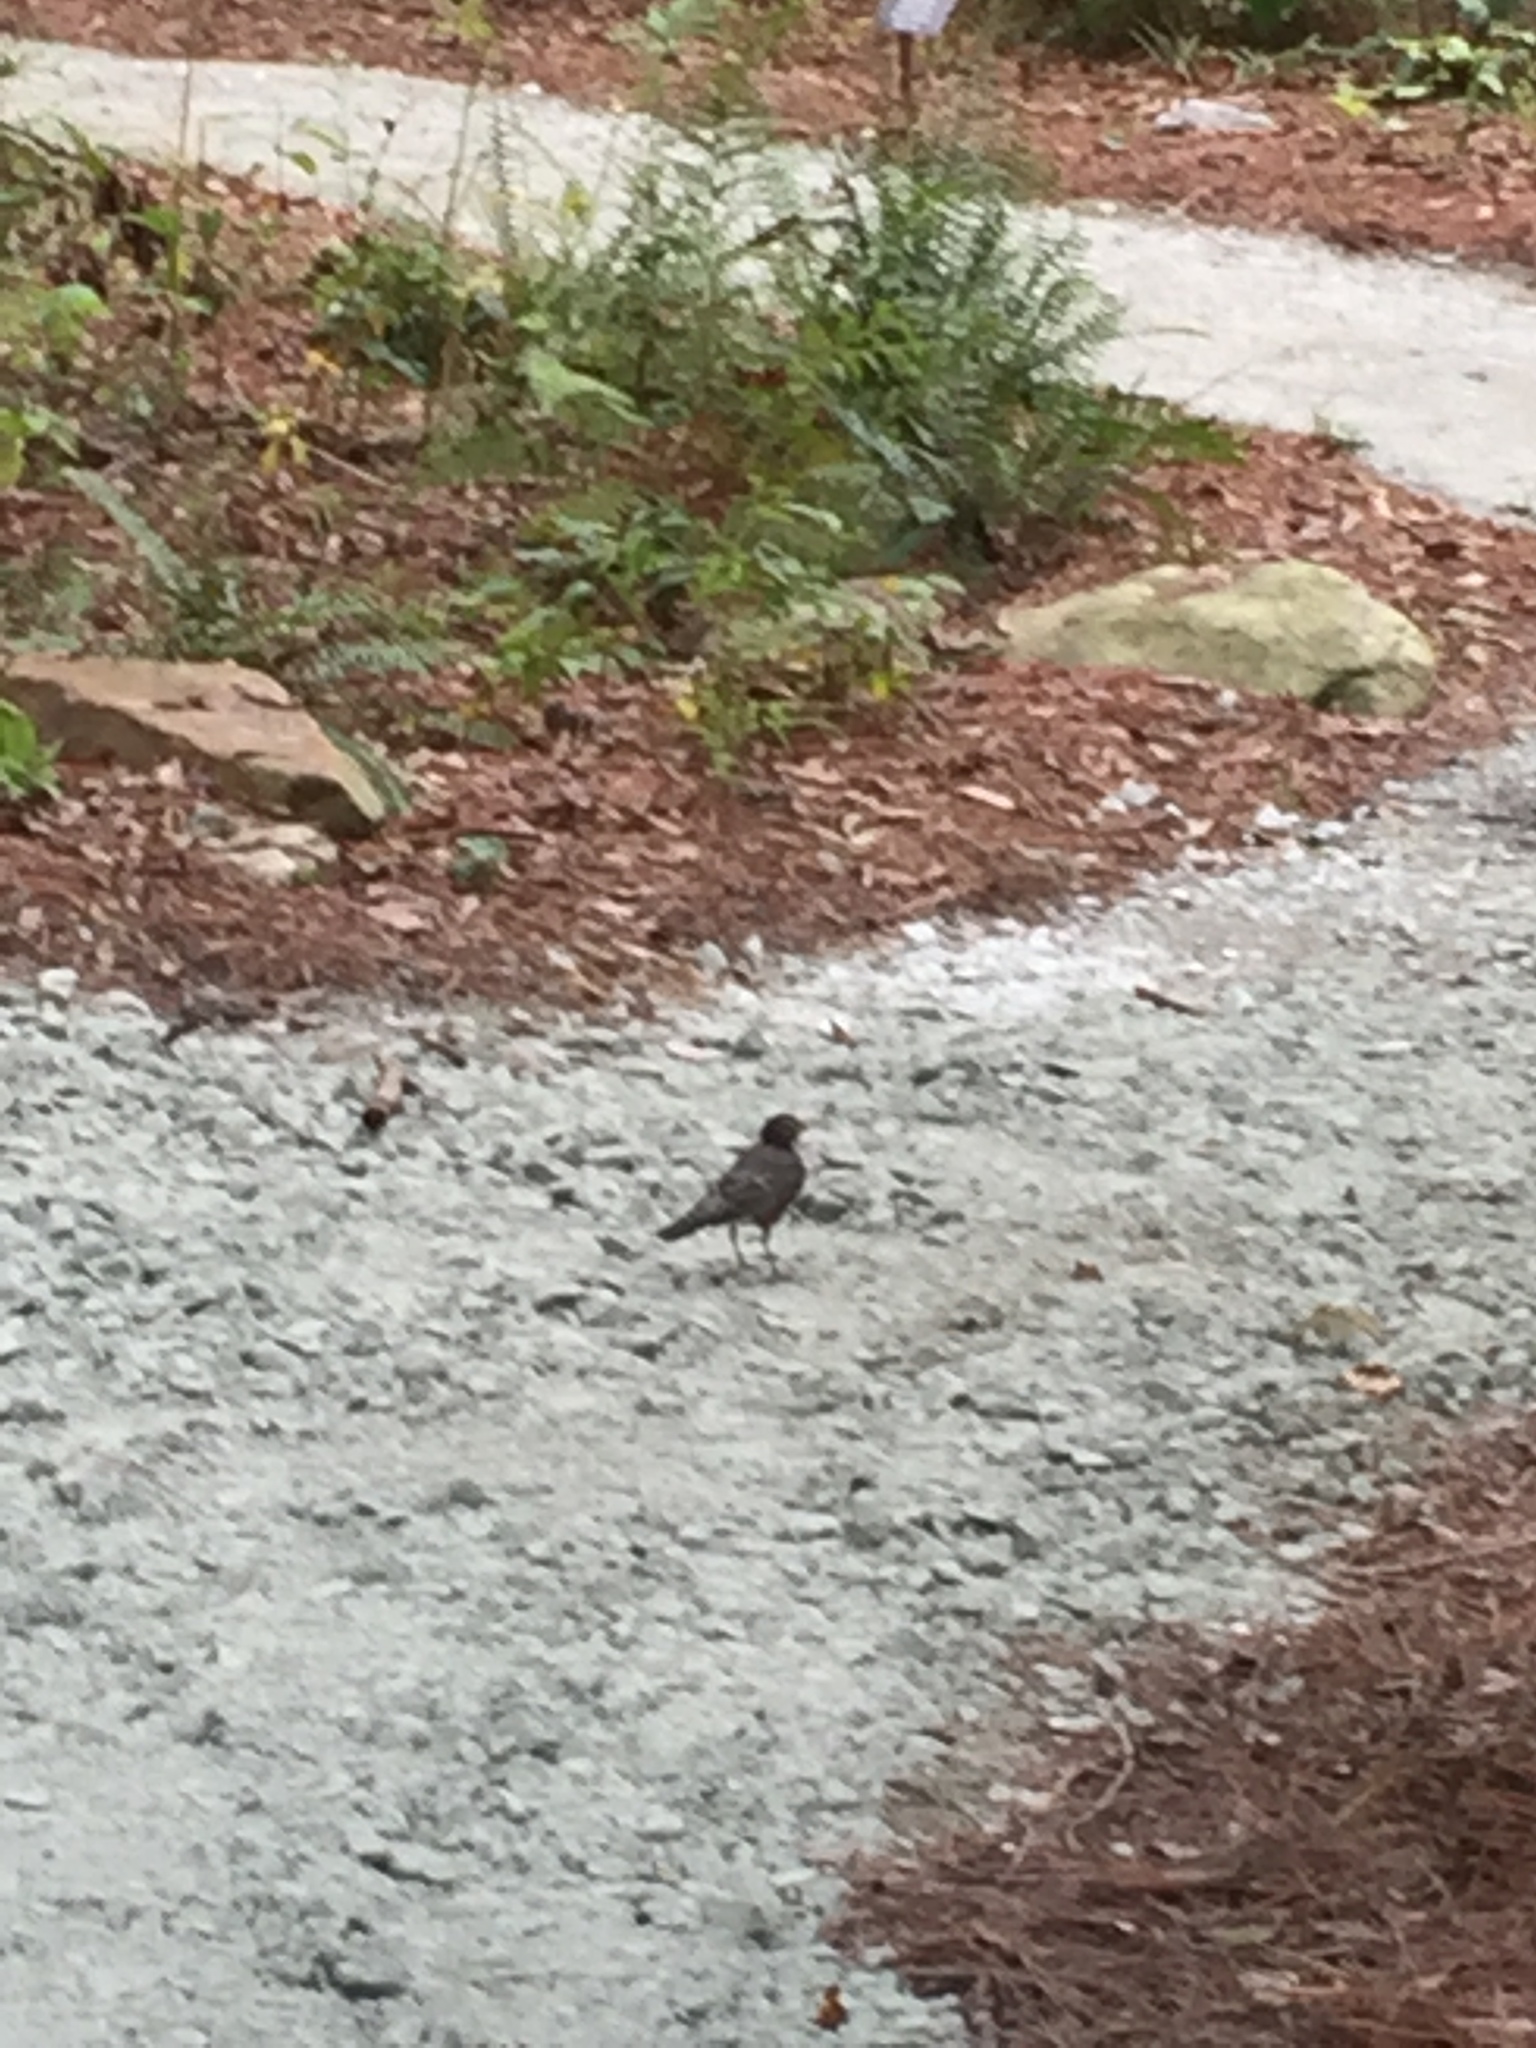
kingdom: Animalia
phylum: Chordata
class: Aves
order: Passeriformes
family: Turdidae
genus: Turdus
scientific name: Turdus migratorius
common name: American robin
